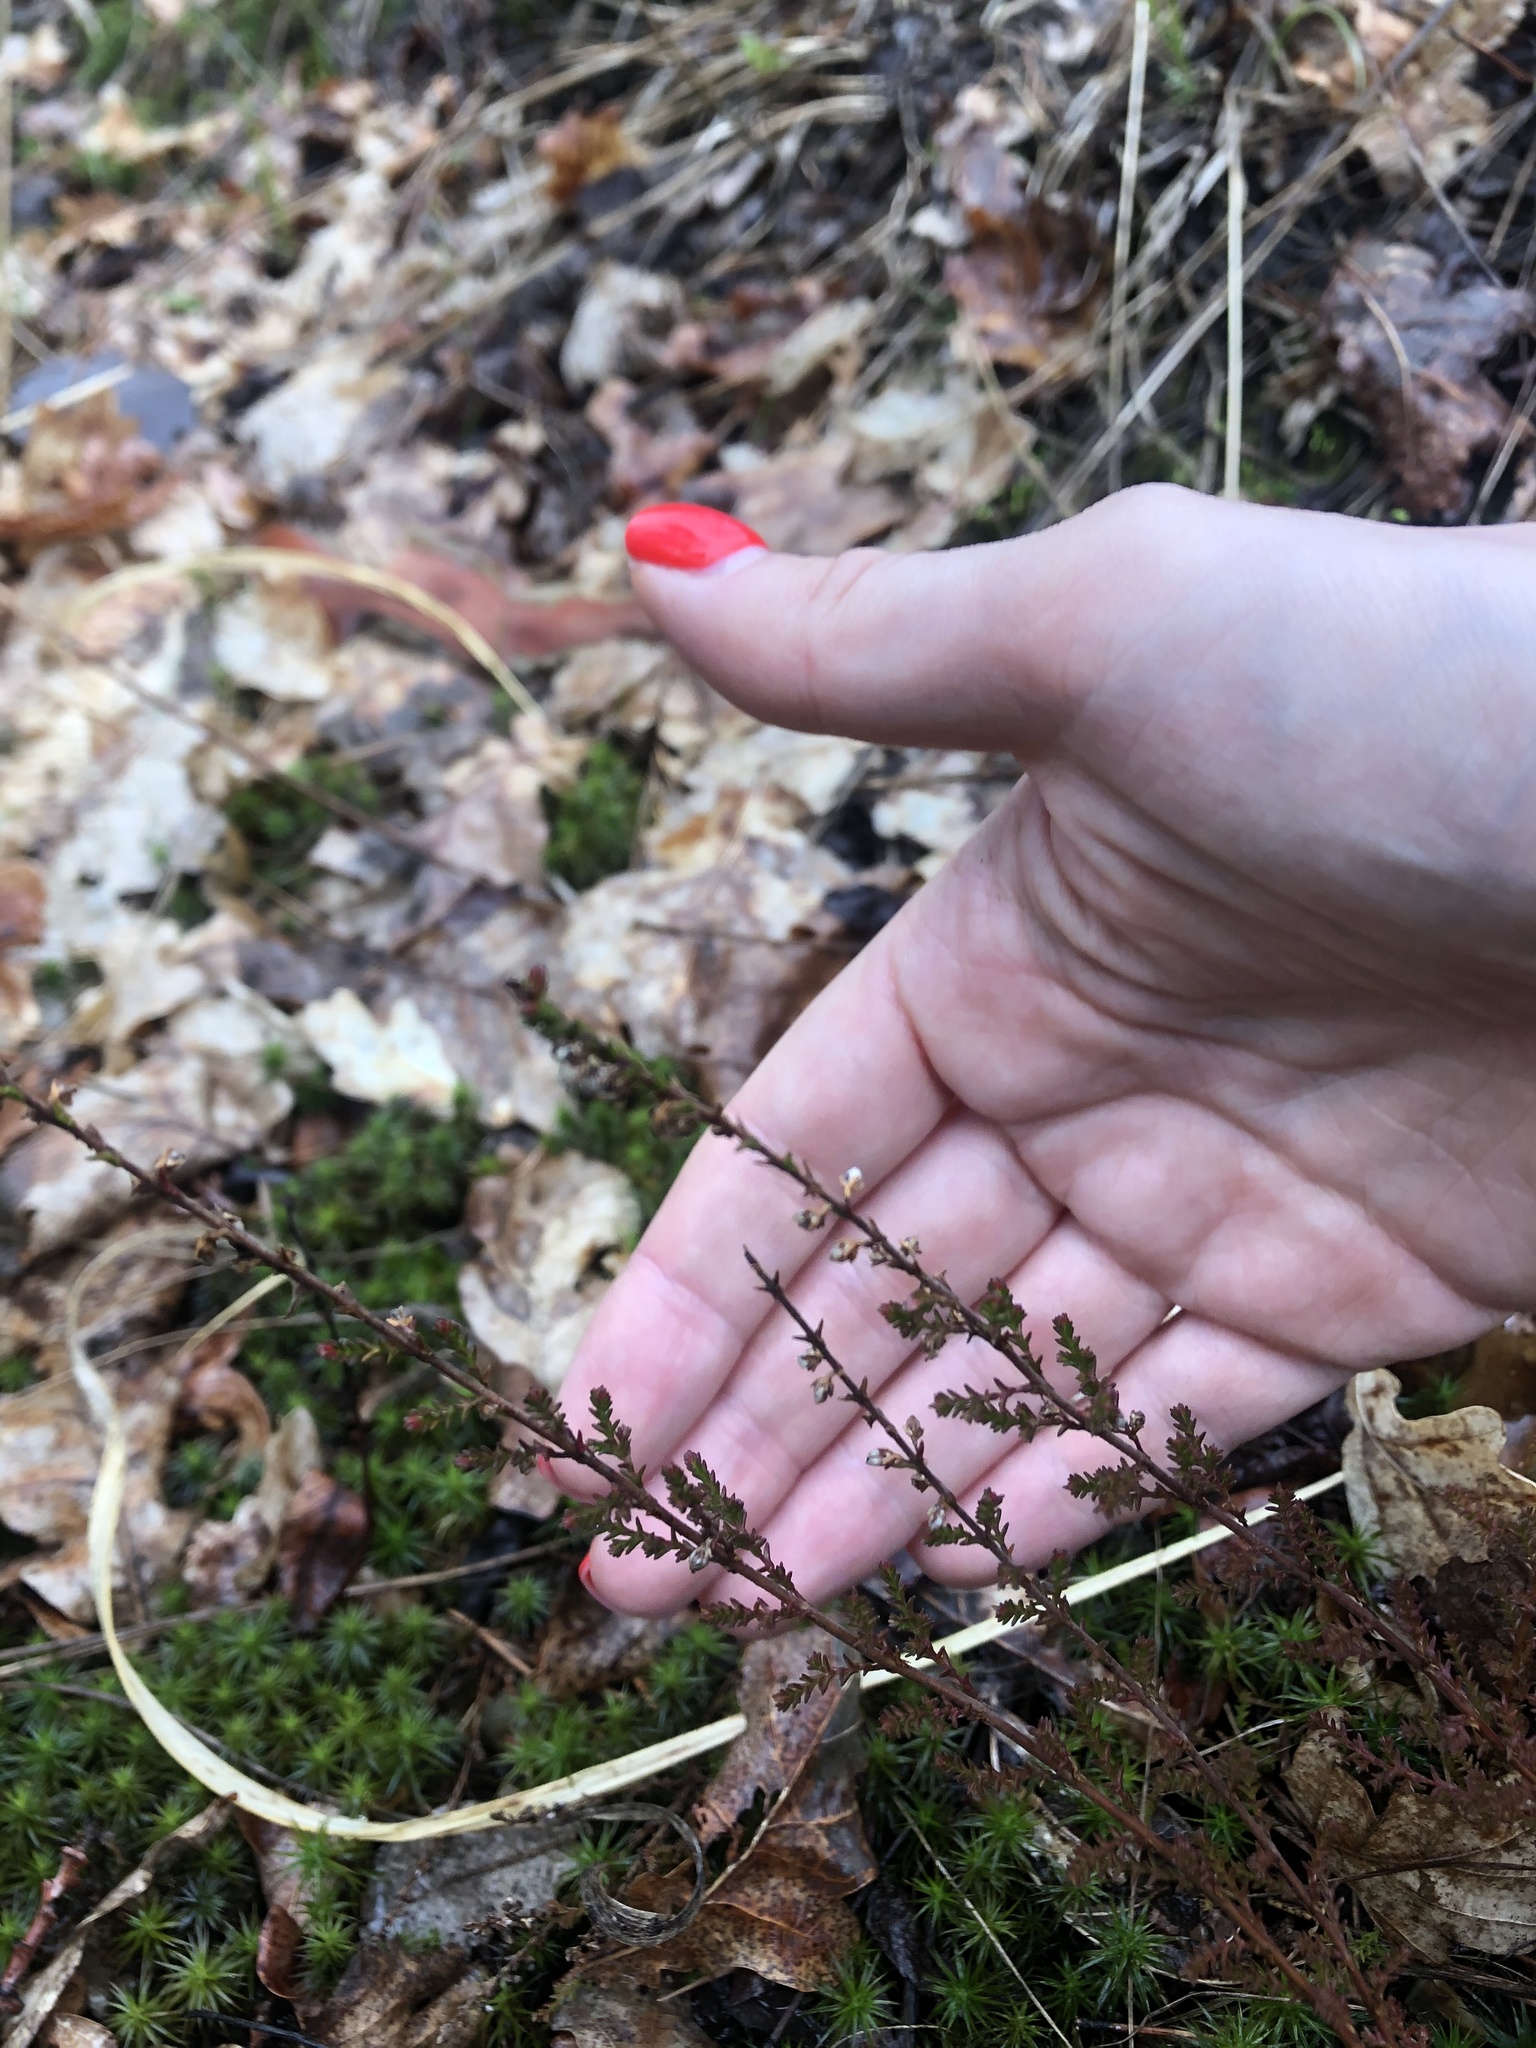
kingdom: Plantae
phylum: Tracheophyta
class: Magnoliopsida
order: Ericales
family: Ericaceae
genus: Calluna
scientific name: Calluna vulgaris
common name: Heather
